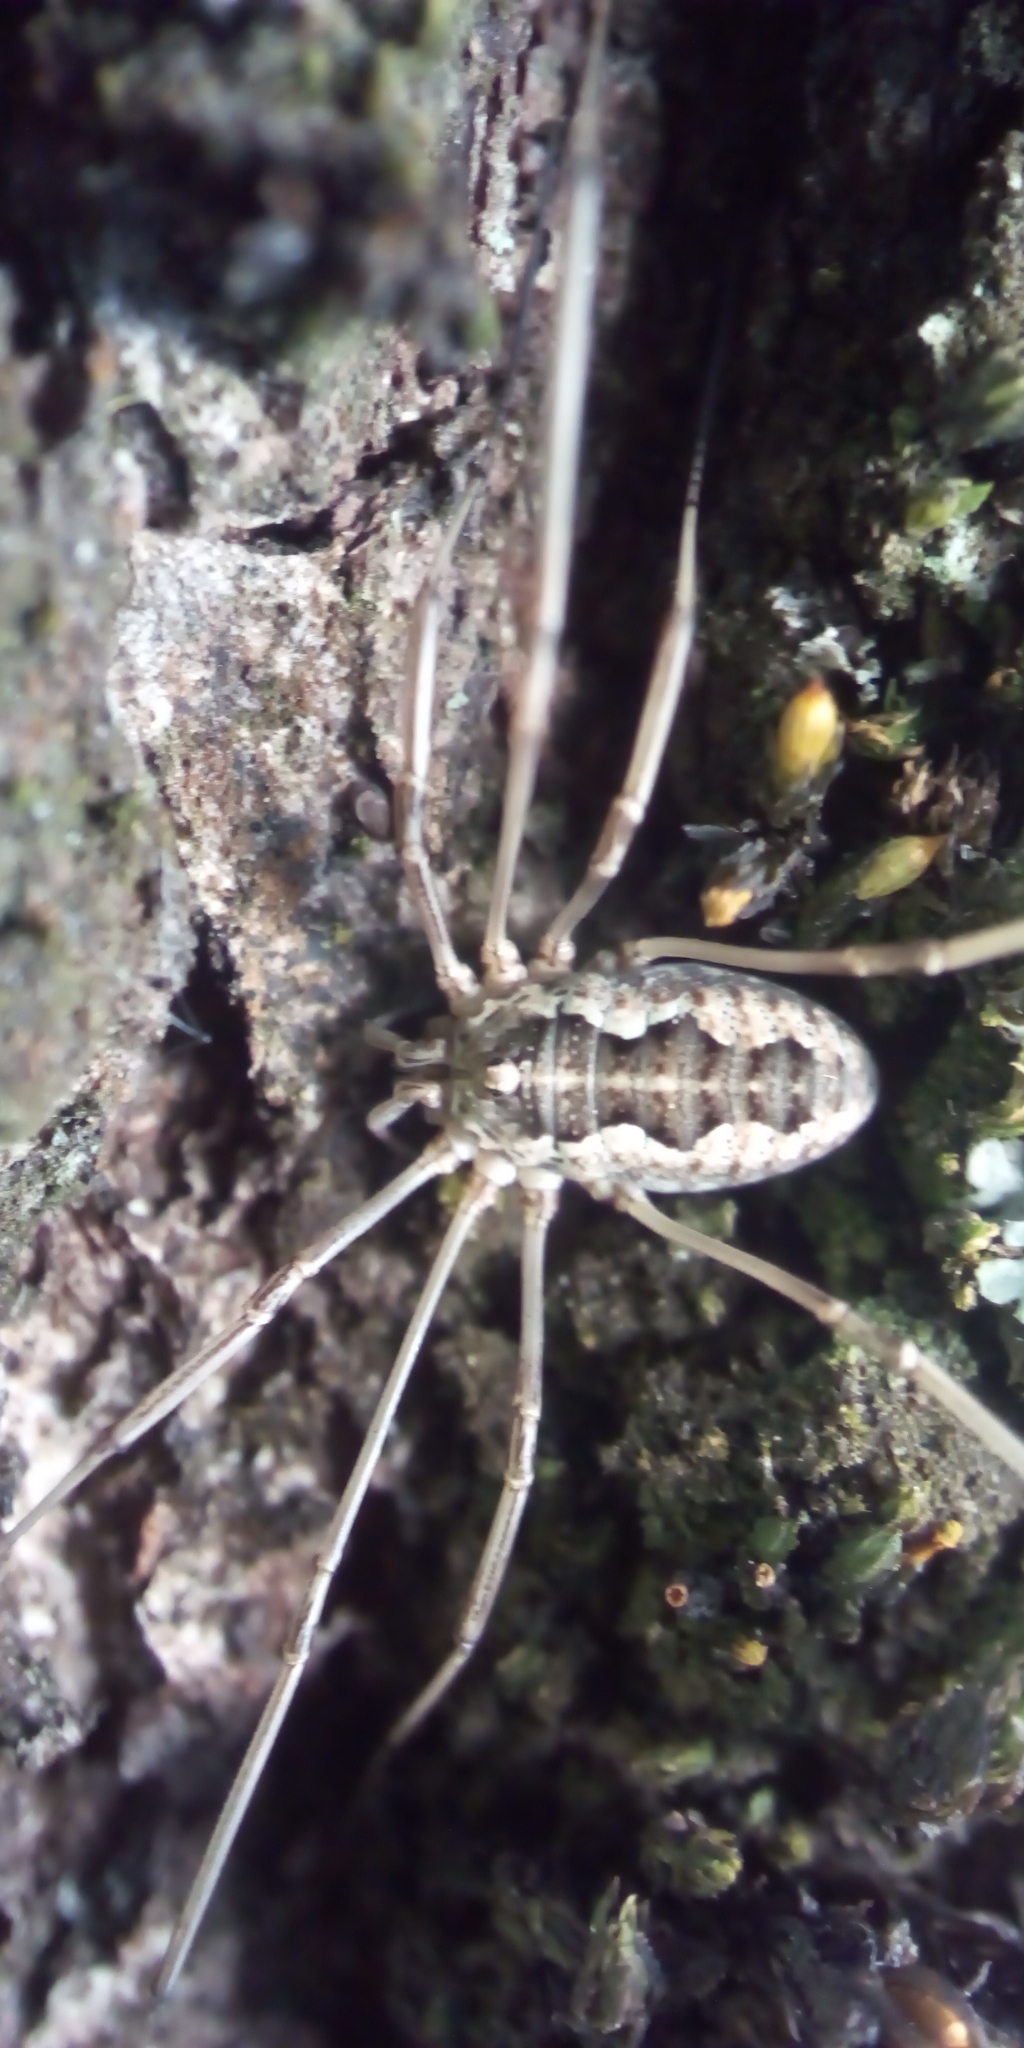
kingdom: Animalia
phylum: Arthropoda
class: Arachnida
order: Opiliones
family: Phalangiidae
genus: Phalangium
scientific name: Phalangium opilio
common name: Daddy longleg
